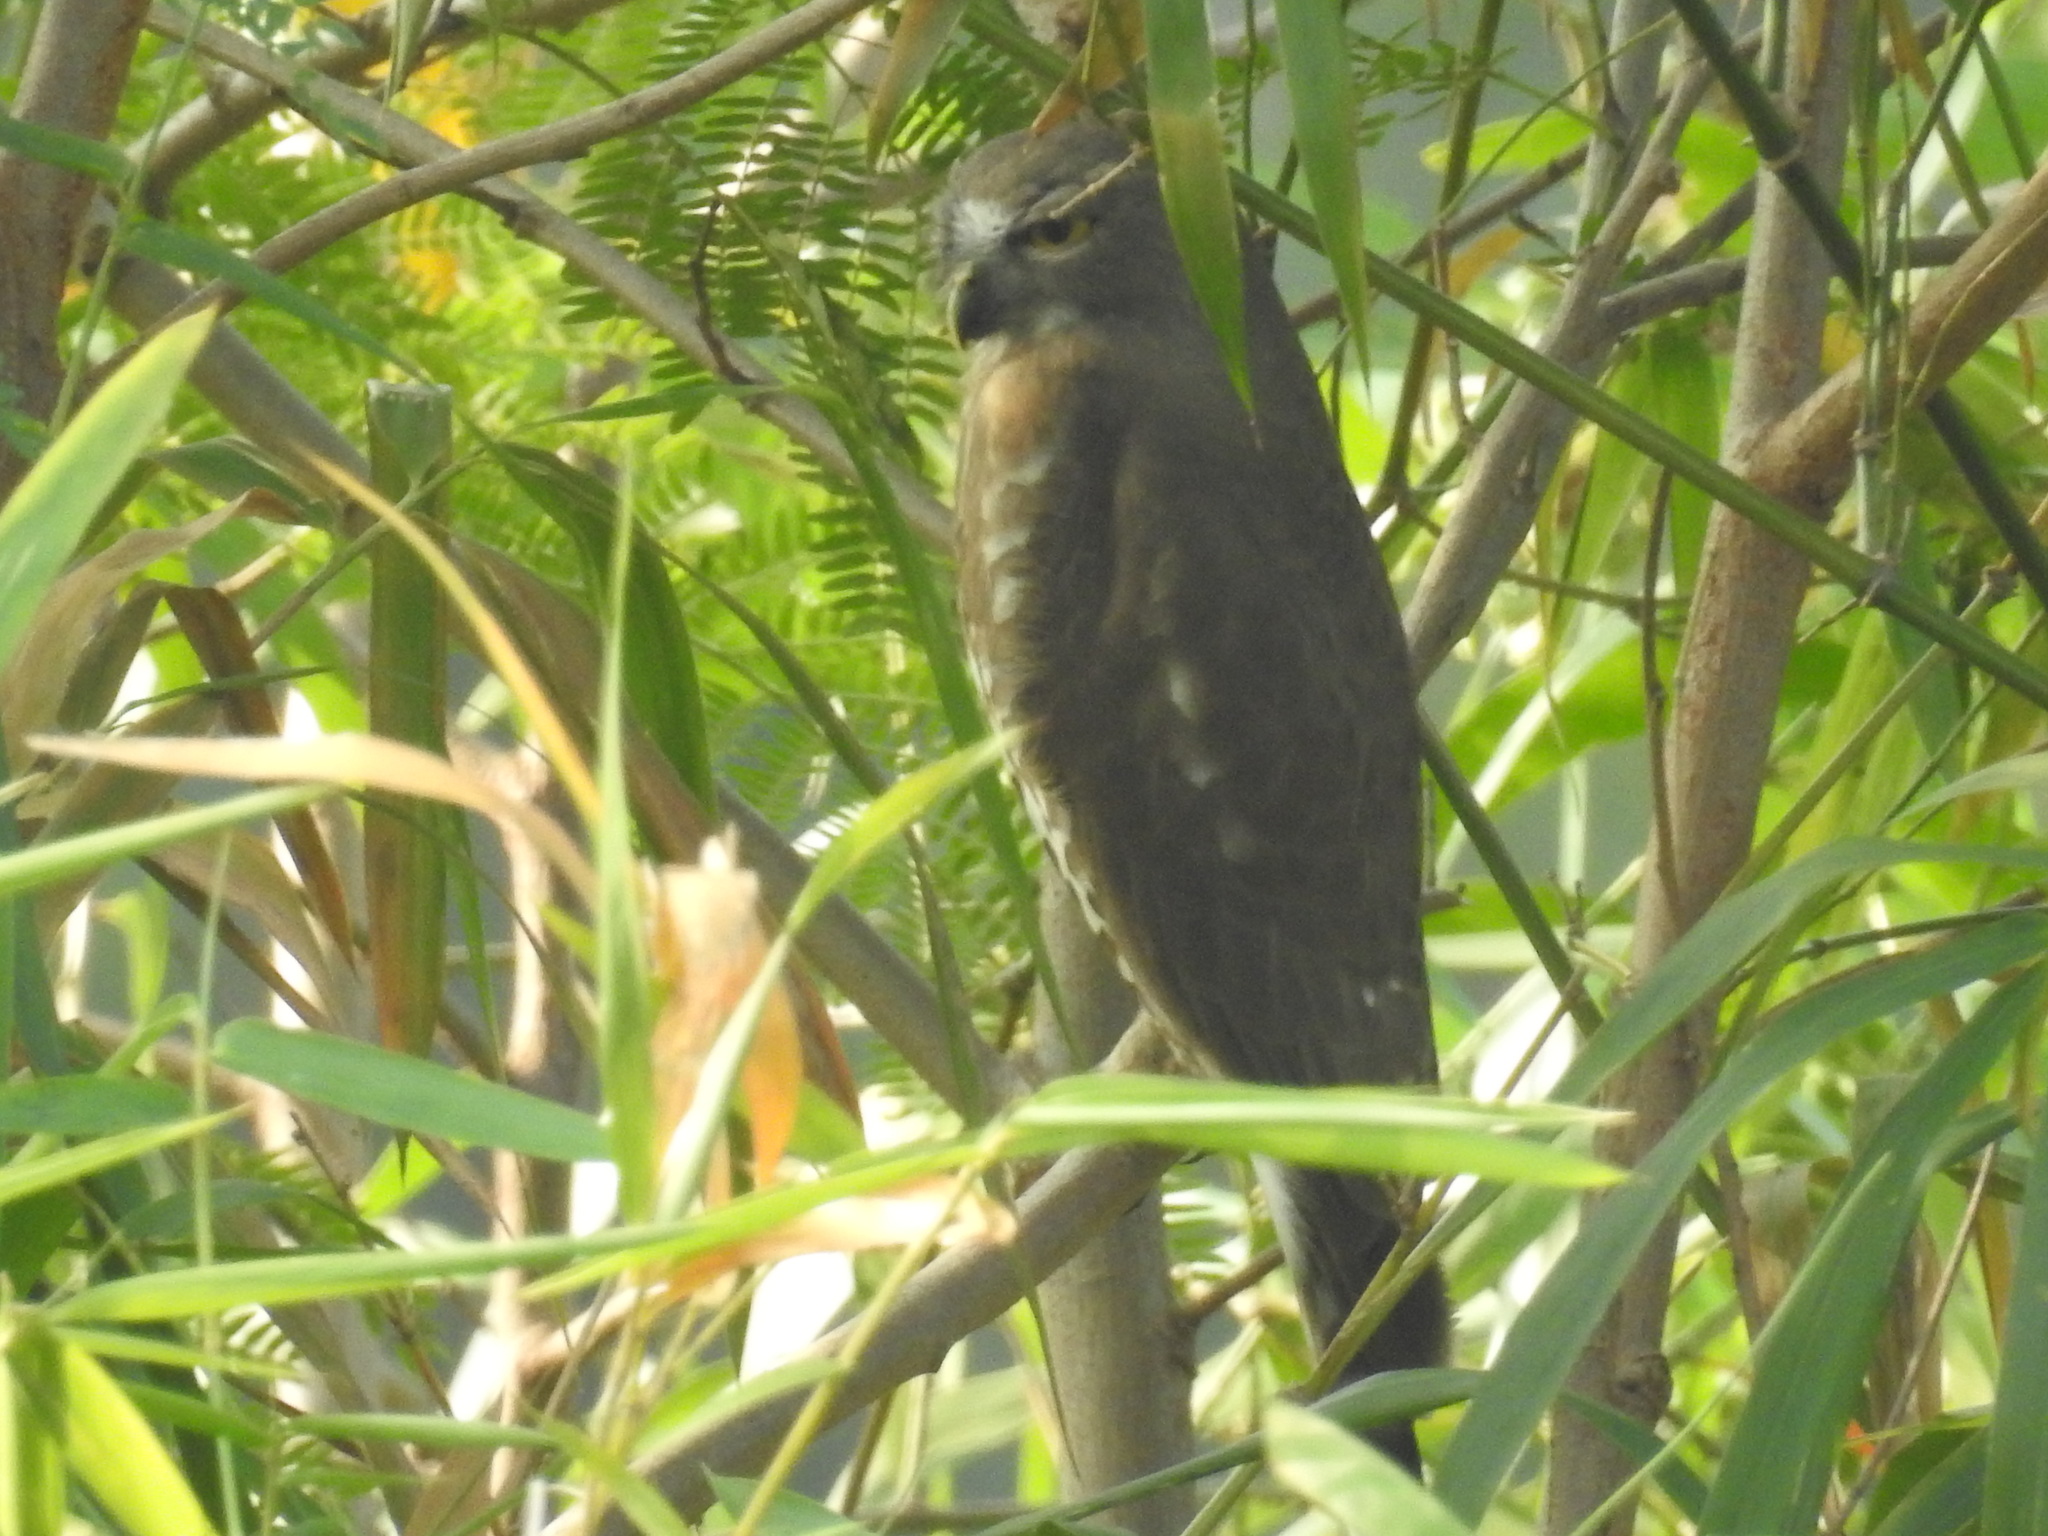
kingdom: Animalia
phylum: Chordata
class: Aves
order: Strigiformes
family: Strigidae
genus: Ninox
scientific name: Ninox scutulata
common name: Brown hawk-owl
